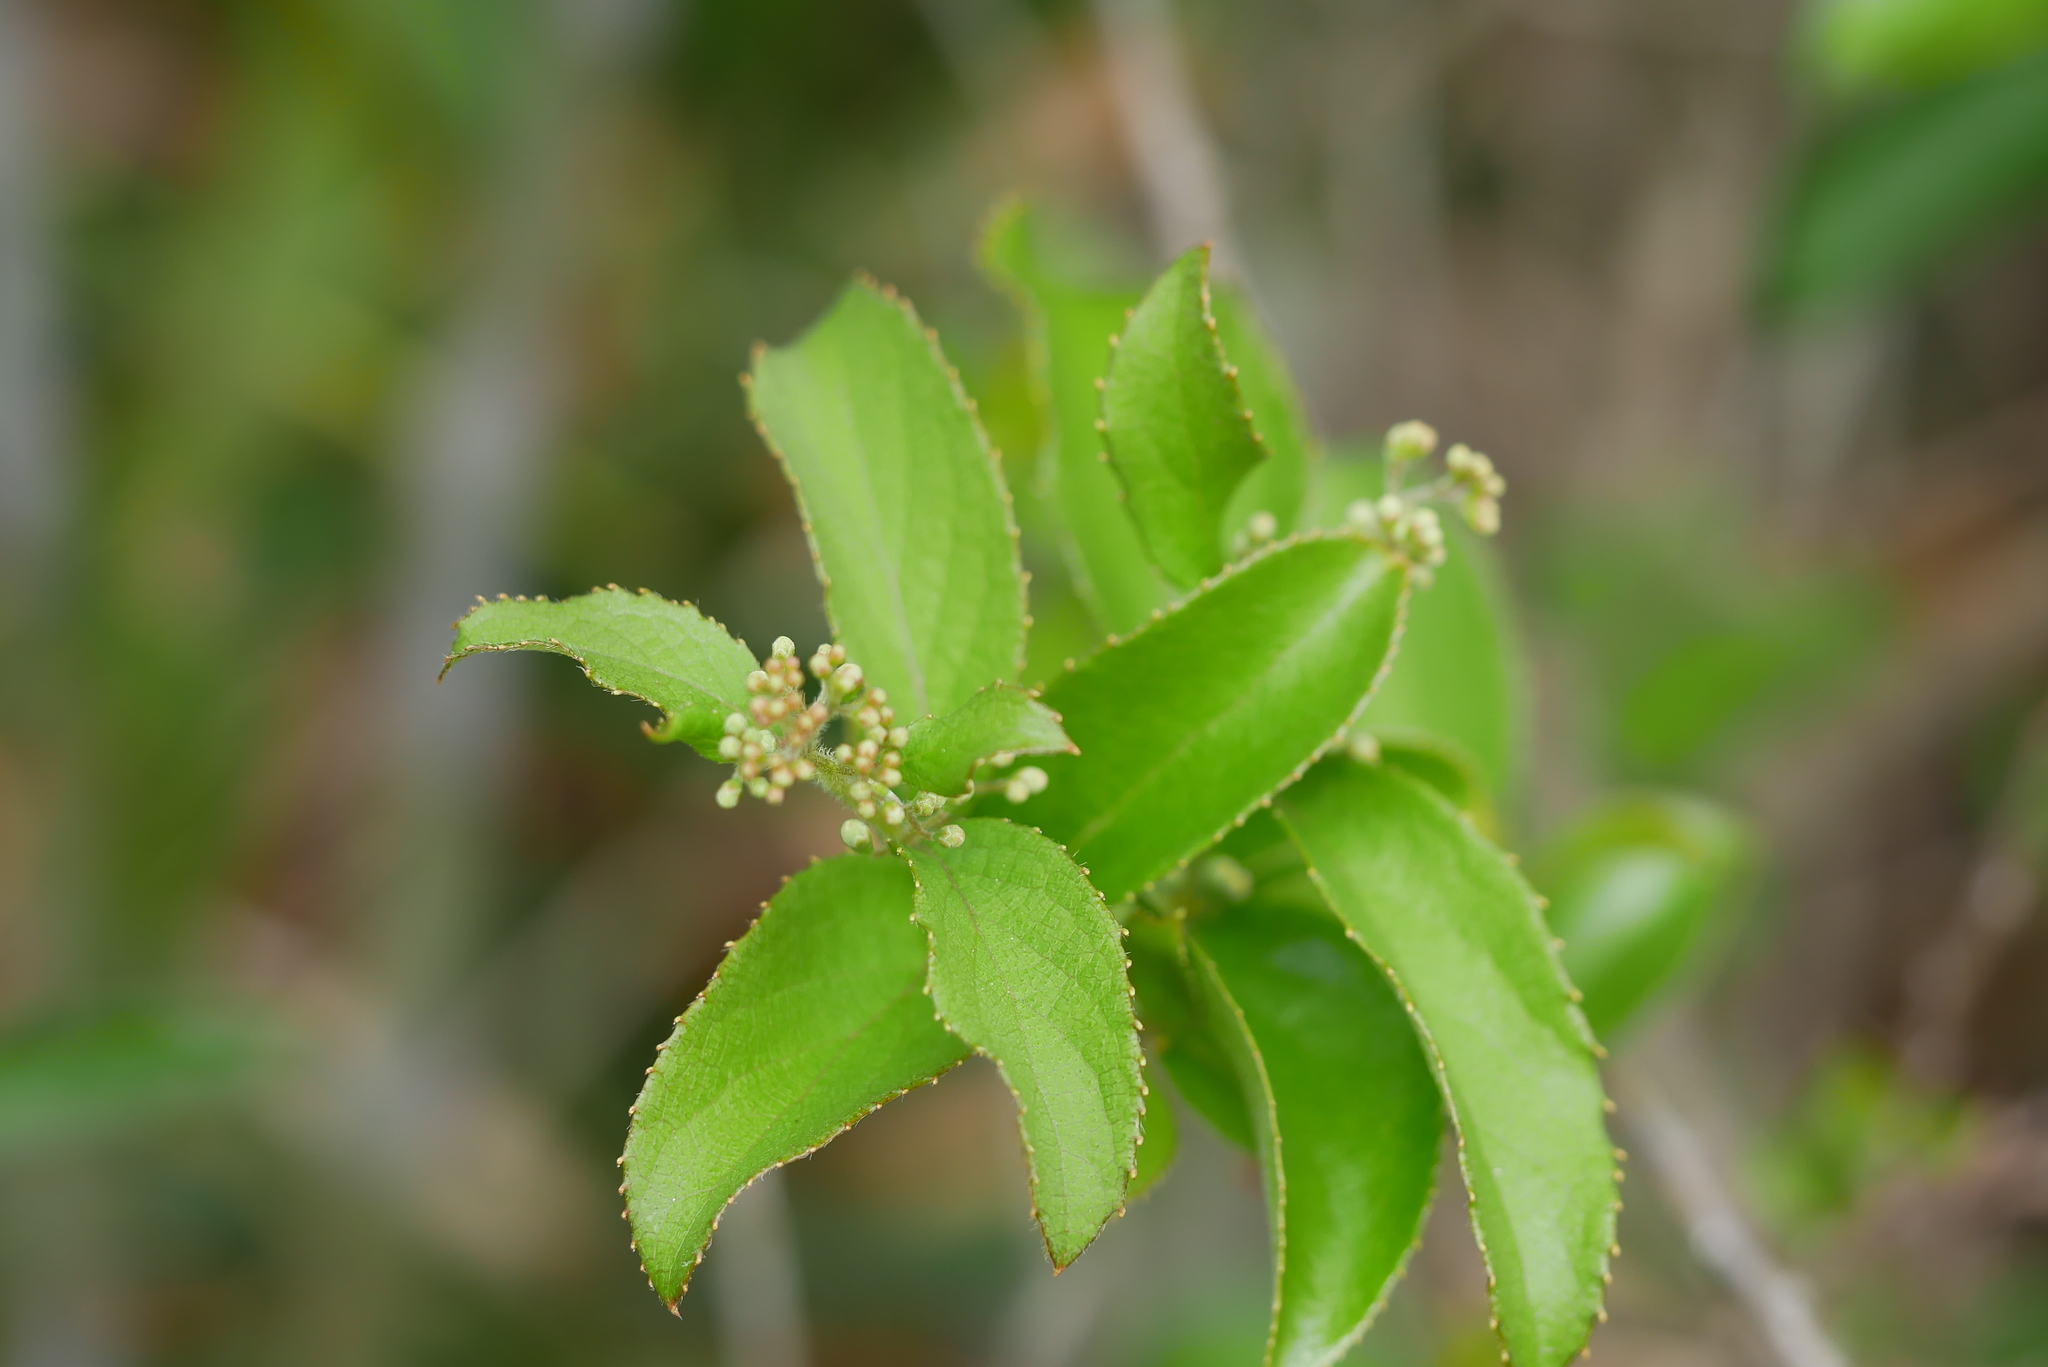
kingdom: Plantae
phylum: Tracheophyta
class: Magnoliopsida
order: Ericales
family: Symplocaceae
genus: Symplocos
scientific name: Symplocos paniculata
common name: Sapphire-berry
